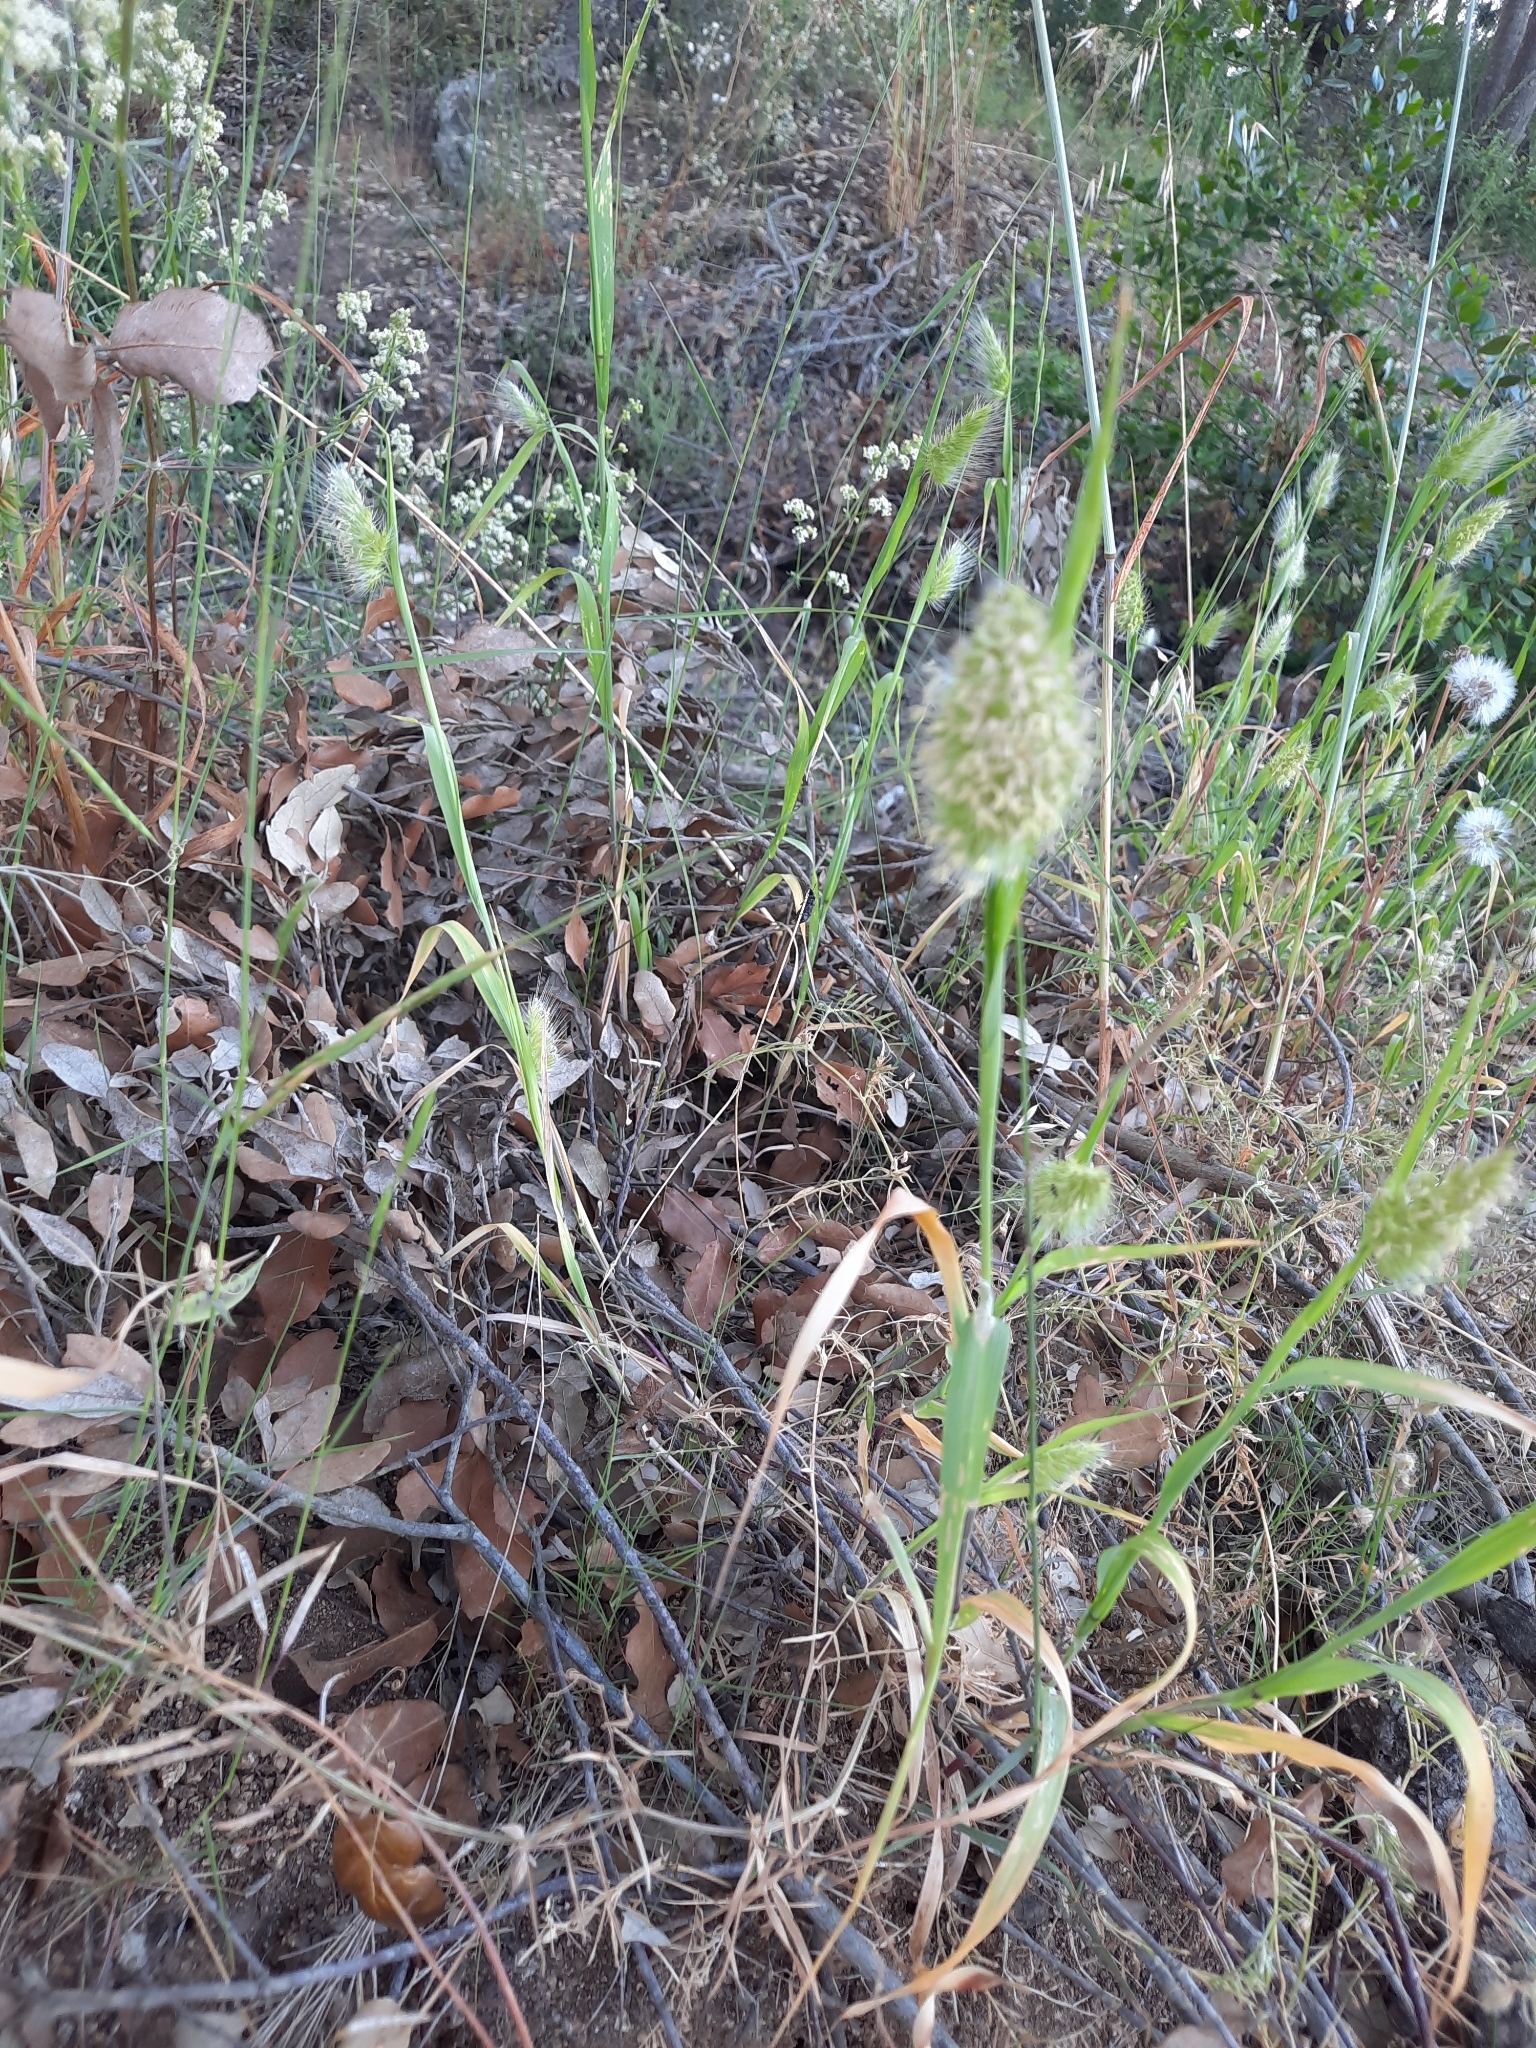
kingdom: Plantae
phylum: Tracheophyta
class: Liliopsida
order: Poales
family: Poaceae
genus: Cynosurus
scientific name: Cynosurus echinatus
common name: Rough dog's-tail
